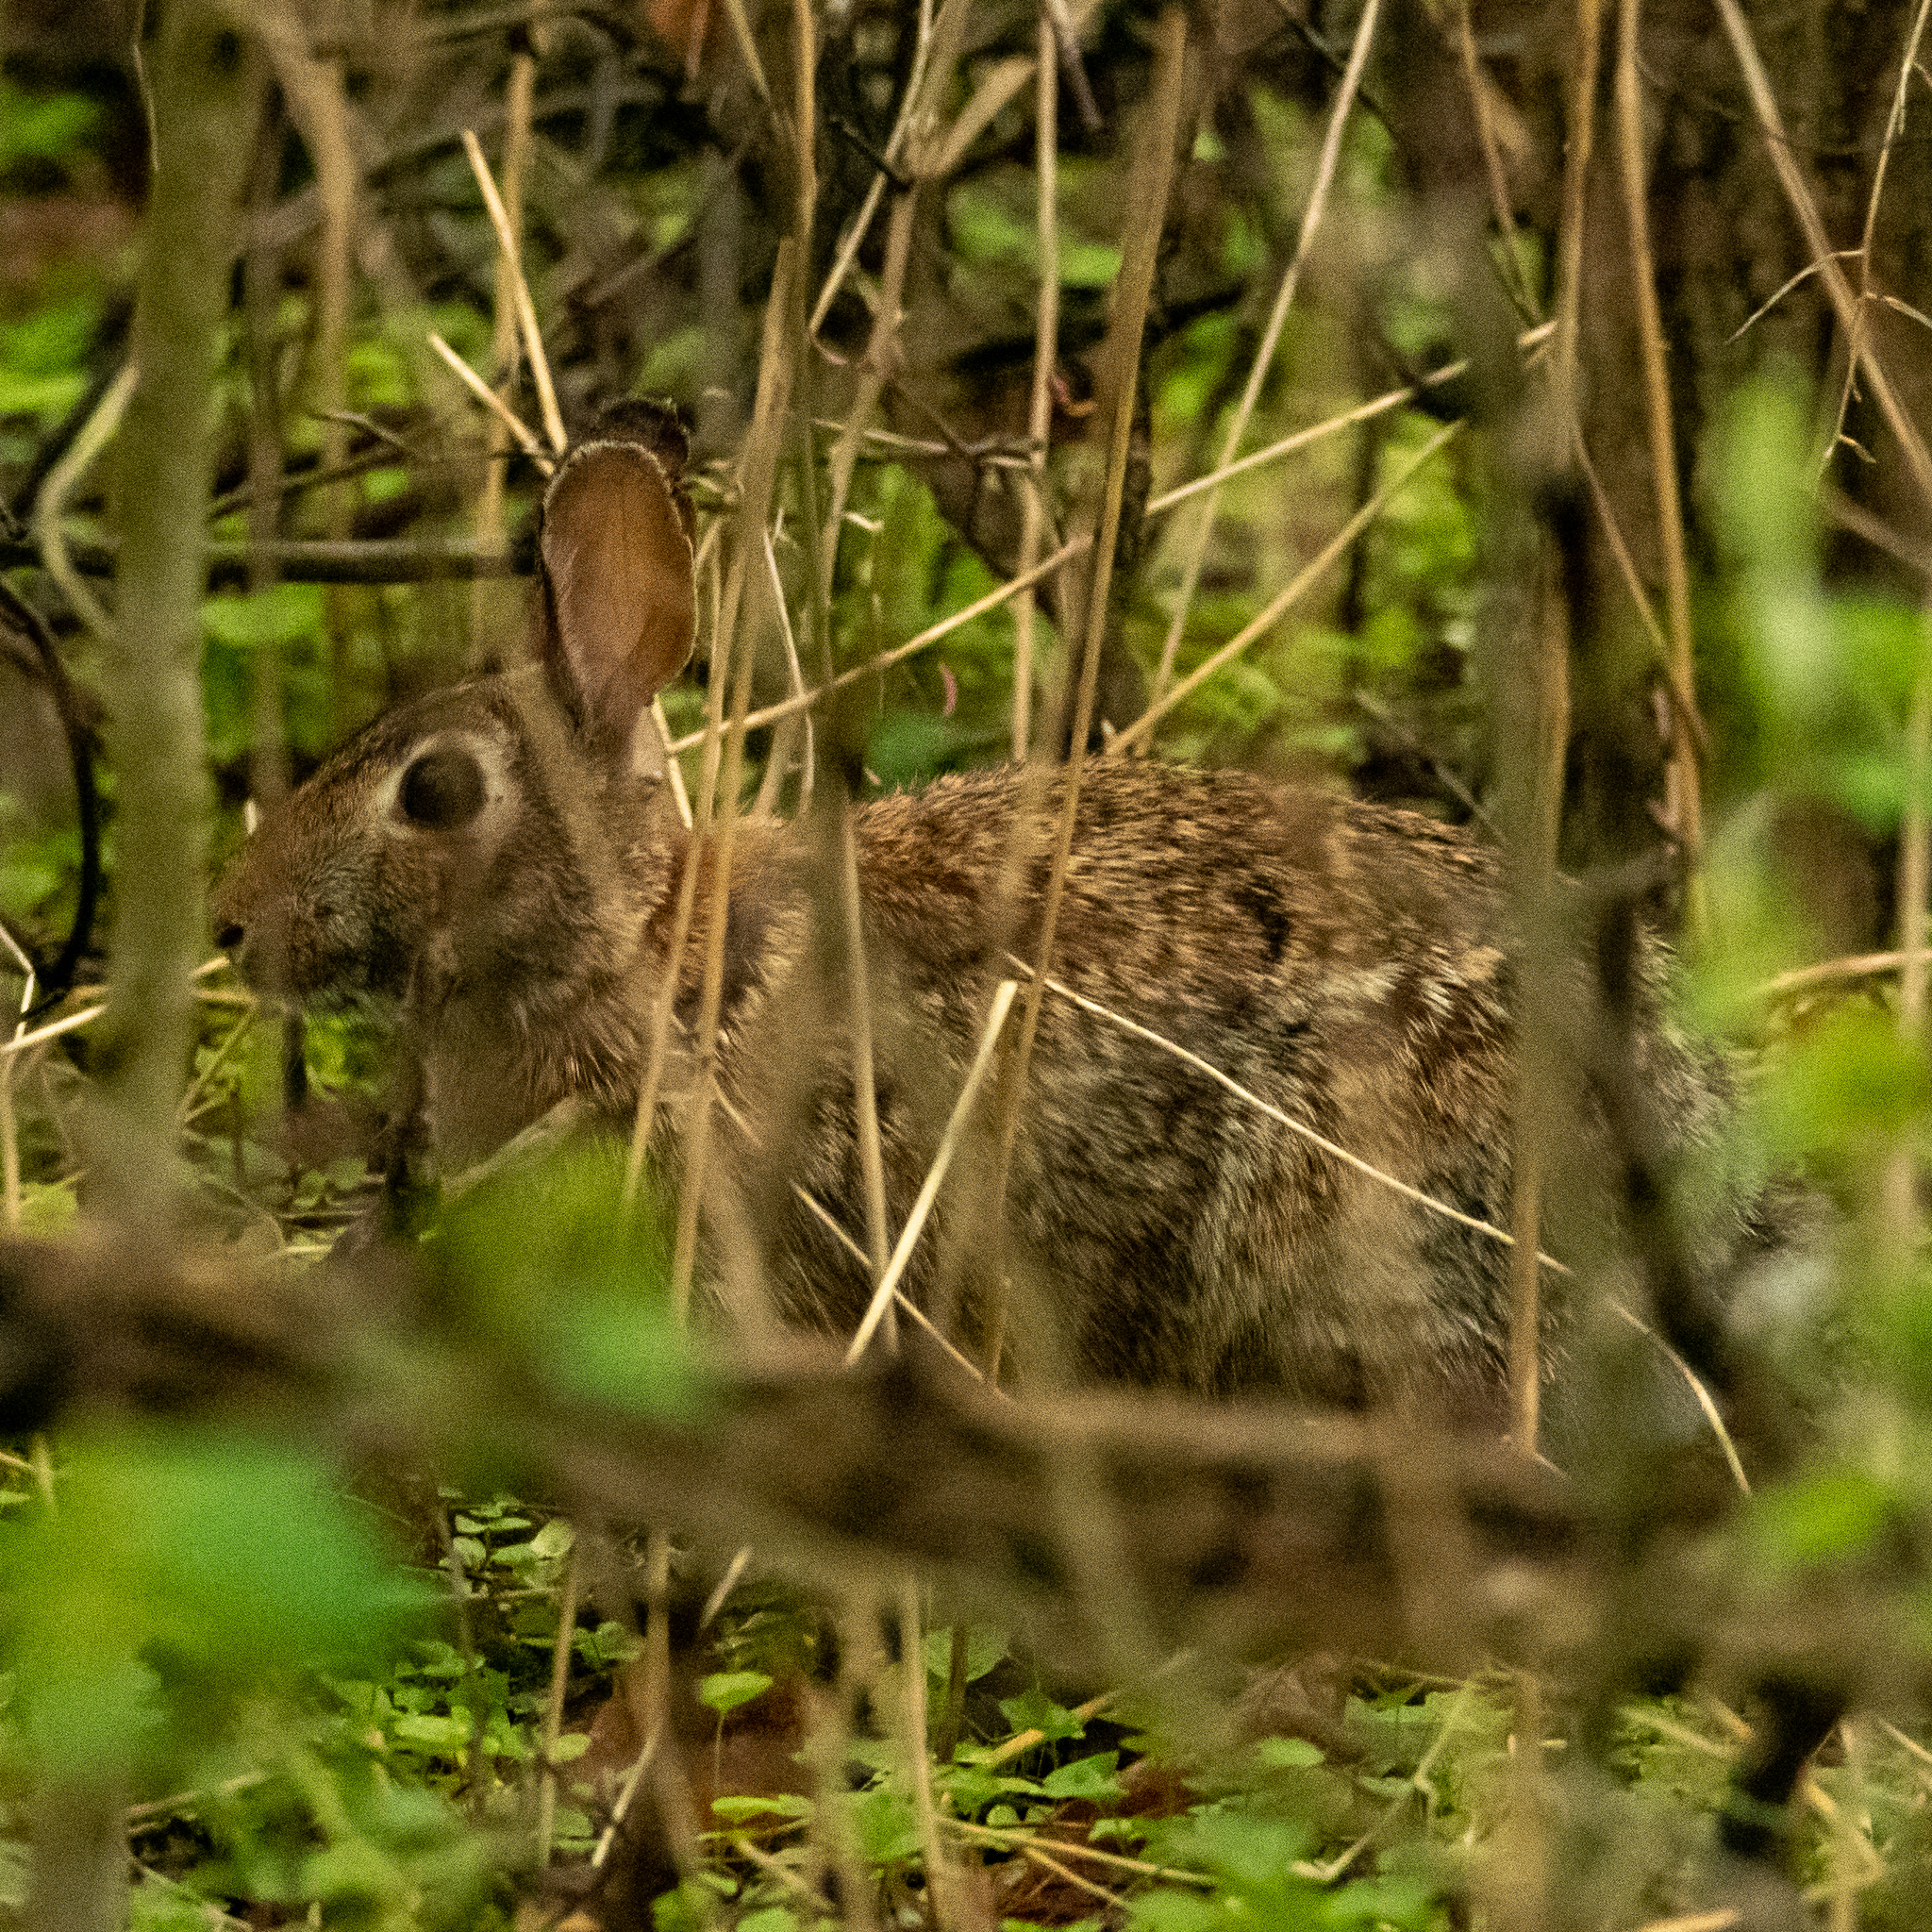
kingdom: Animalia
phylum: Chordata
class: Mammalia
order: Lagomorpha
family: Leporidae
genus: Sylvilagus
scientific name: Sylvilagus floridanus
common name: Eastern cottontail
